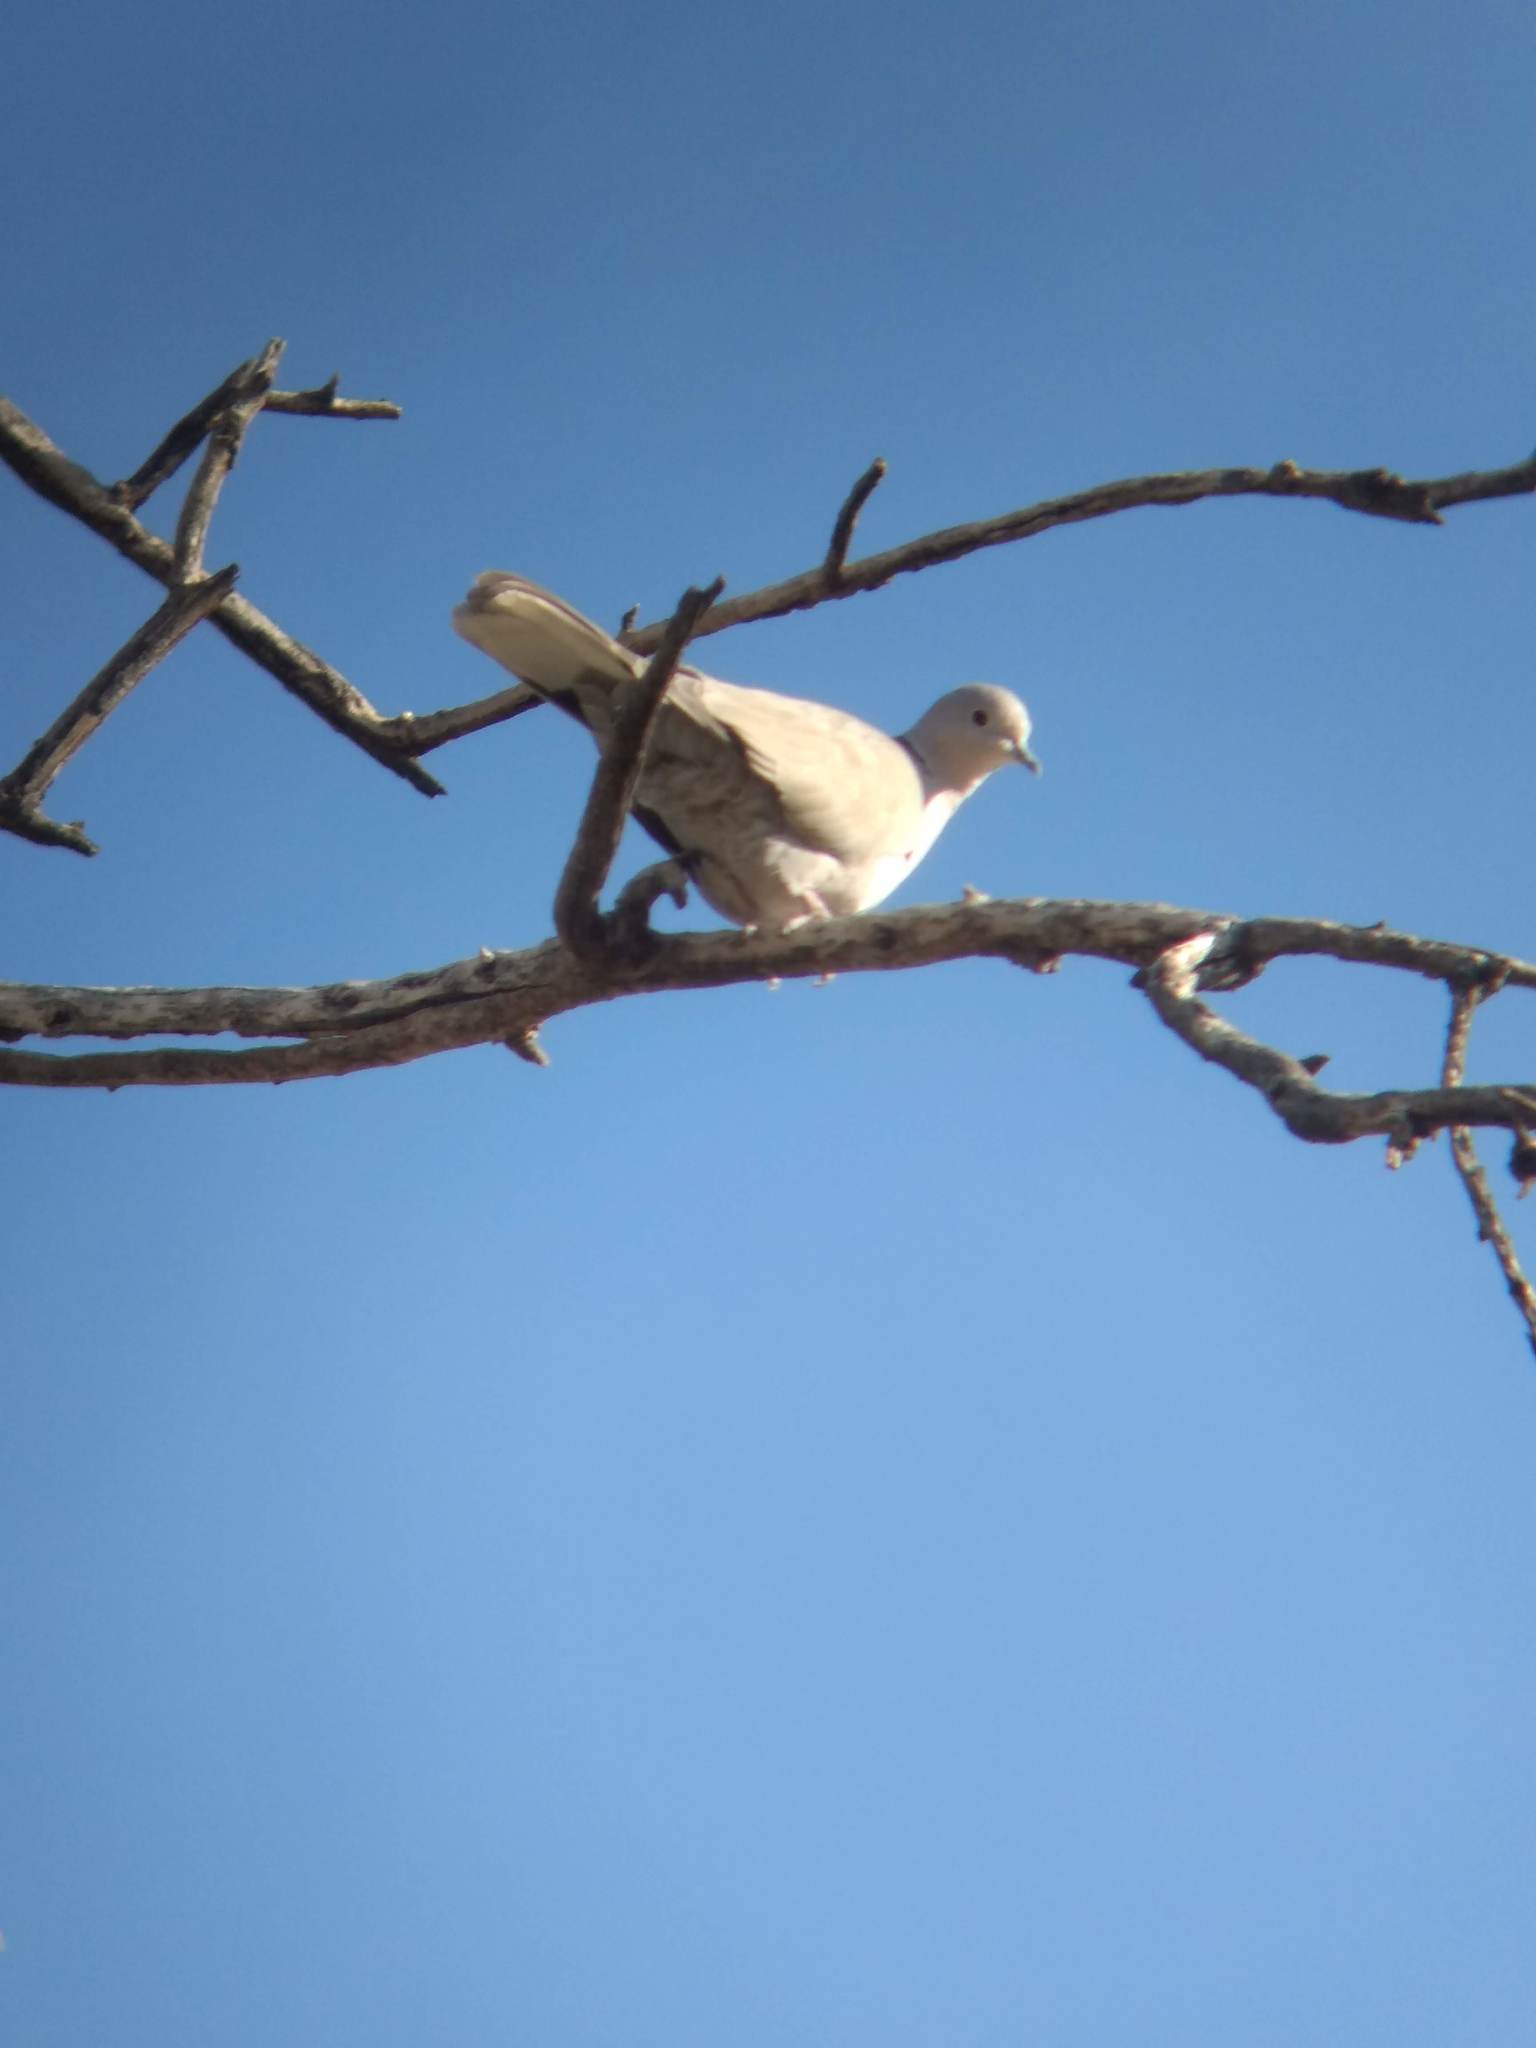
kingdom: Animalia
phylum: Chordata
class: Aves
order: Columbiformes
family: Columbidae
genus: Streptopelia
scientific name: Streptopelia decaocto
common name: Eurasian collared dove
